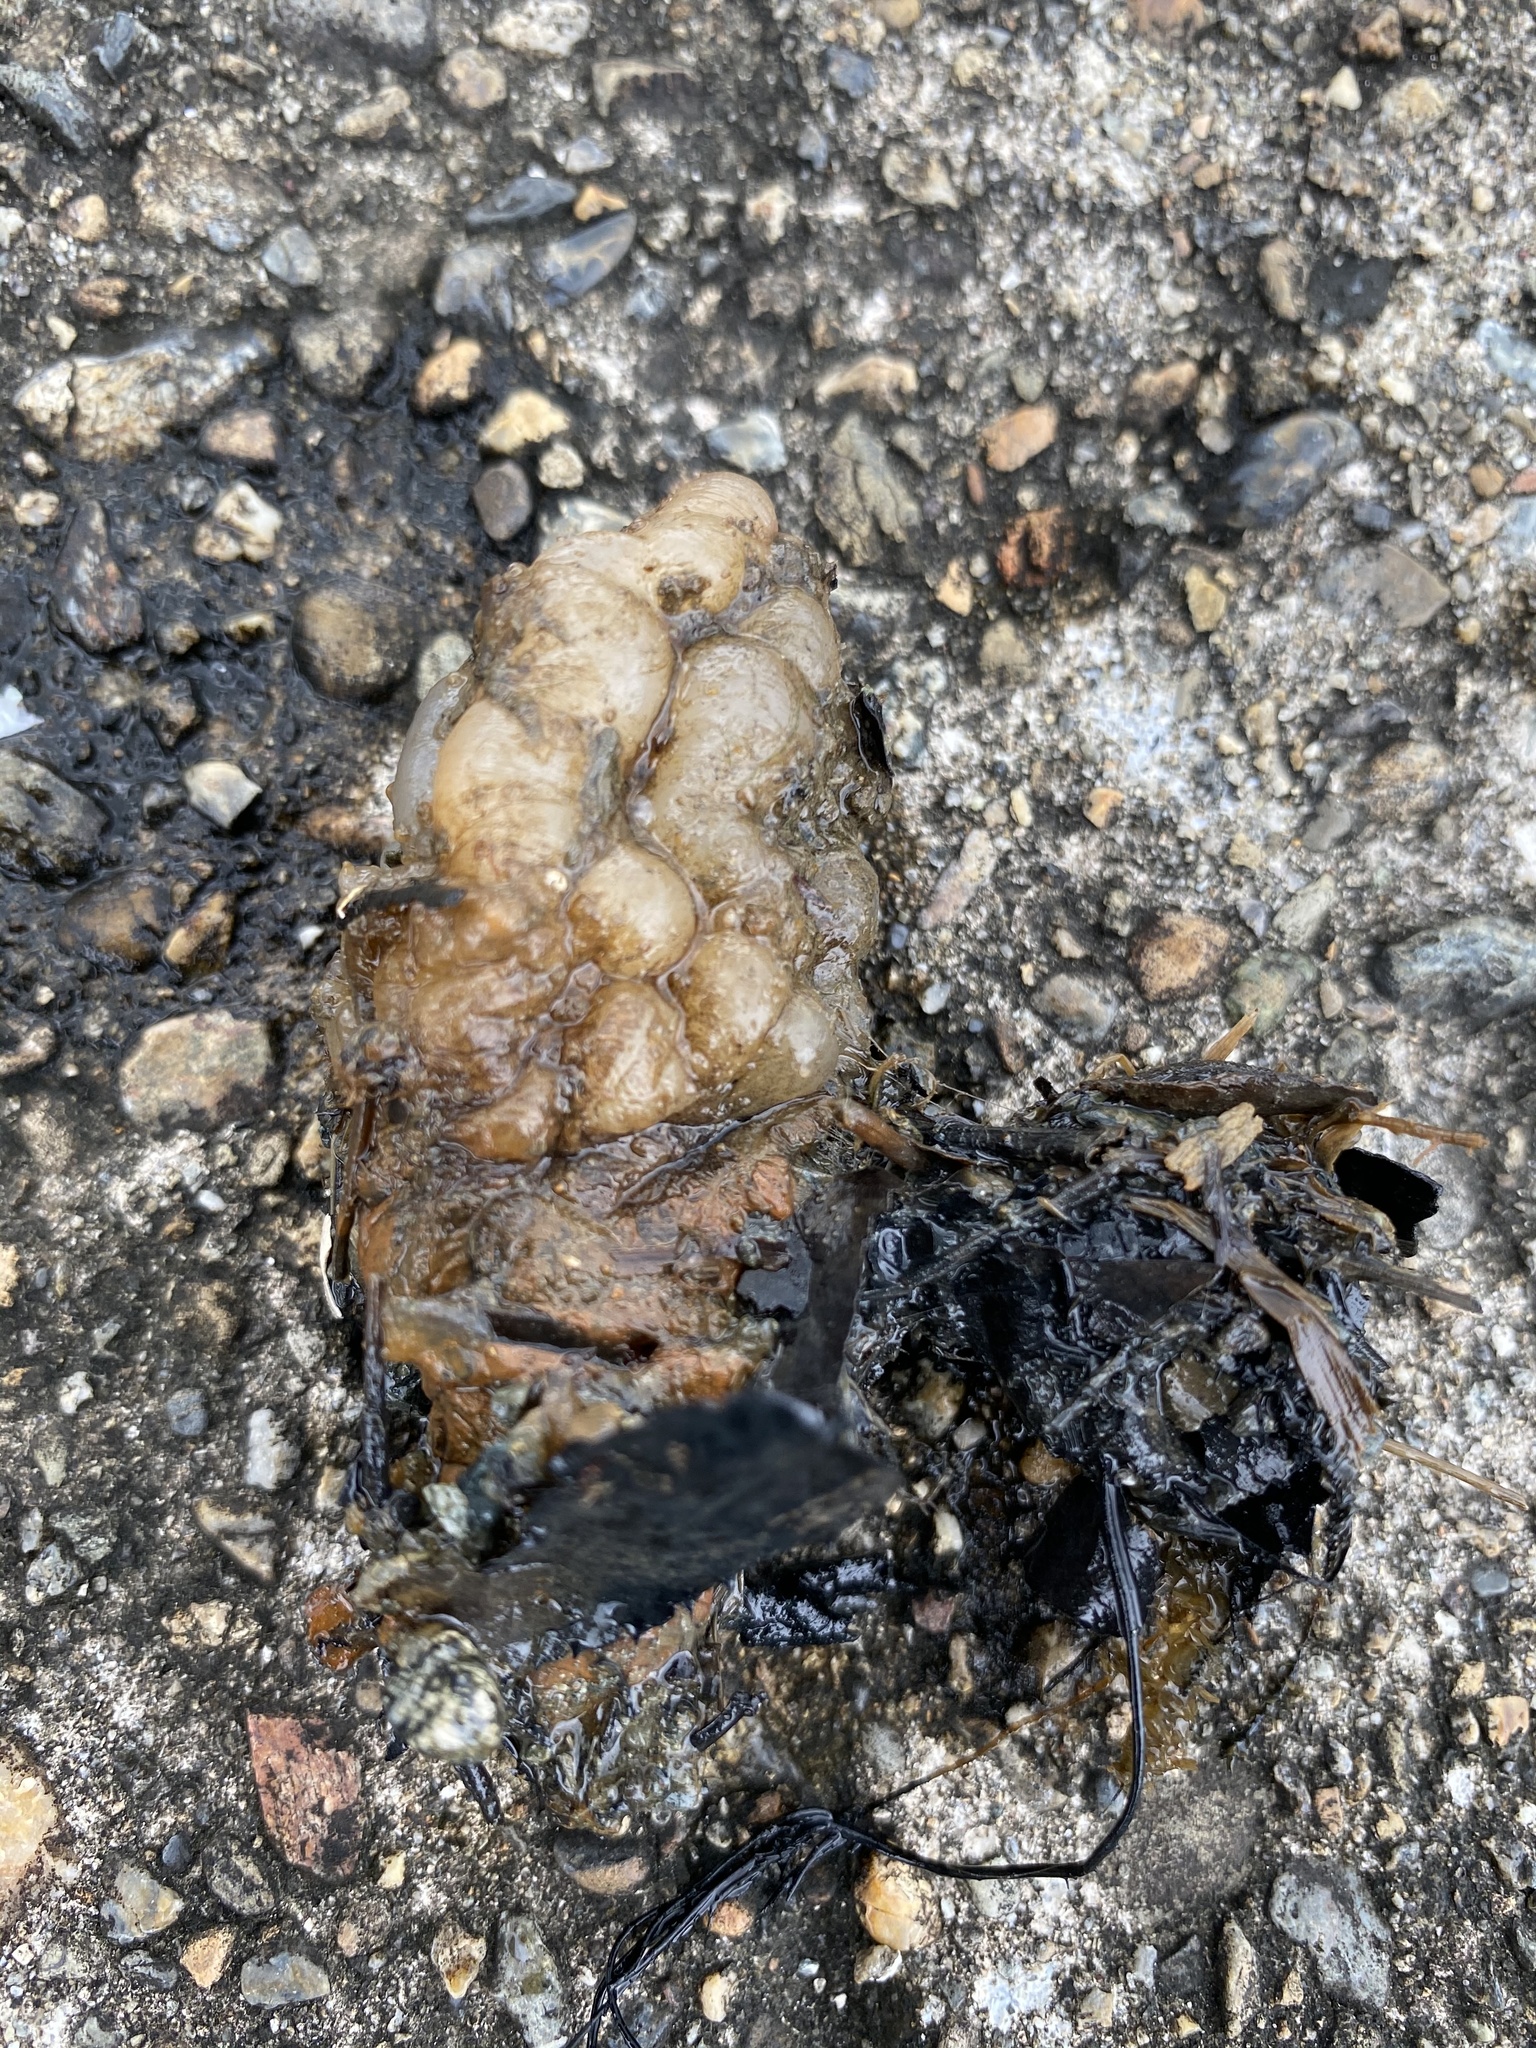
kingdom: Animalia
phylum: Chordata
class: Ascidiacea
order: Stolidobranchia
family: Styelidae
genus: Styela
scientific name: Styela plicata
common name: Pleated tunicate
